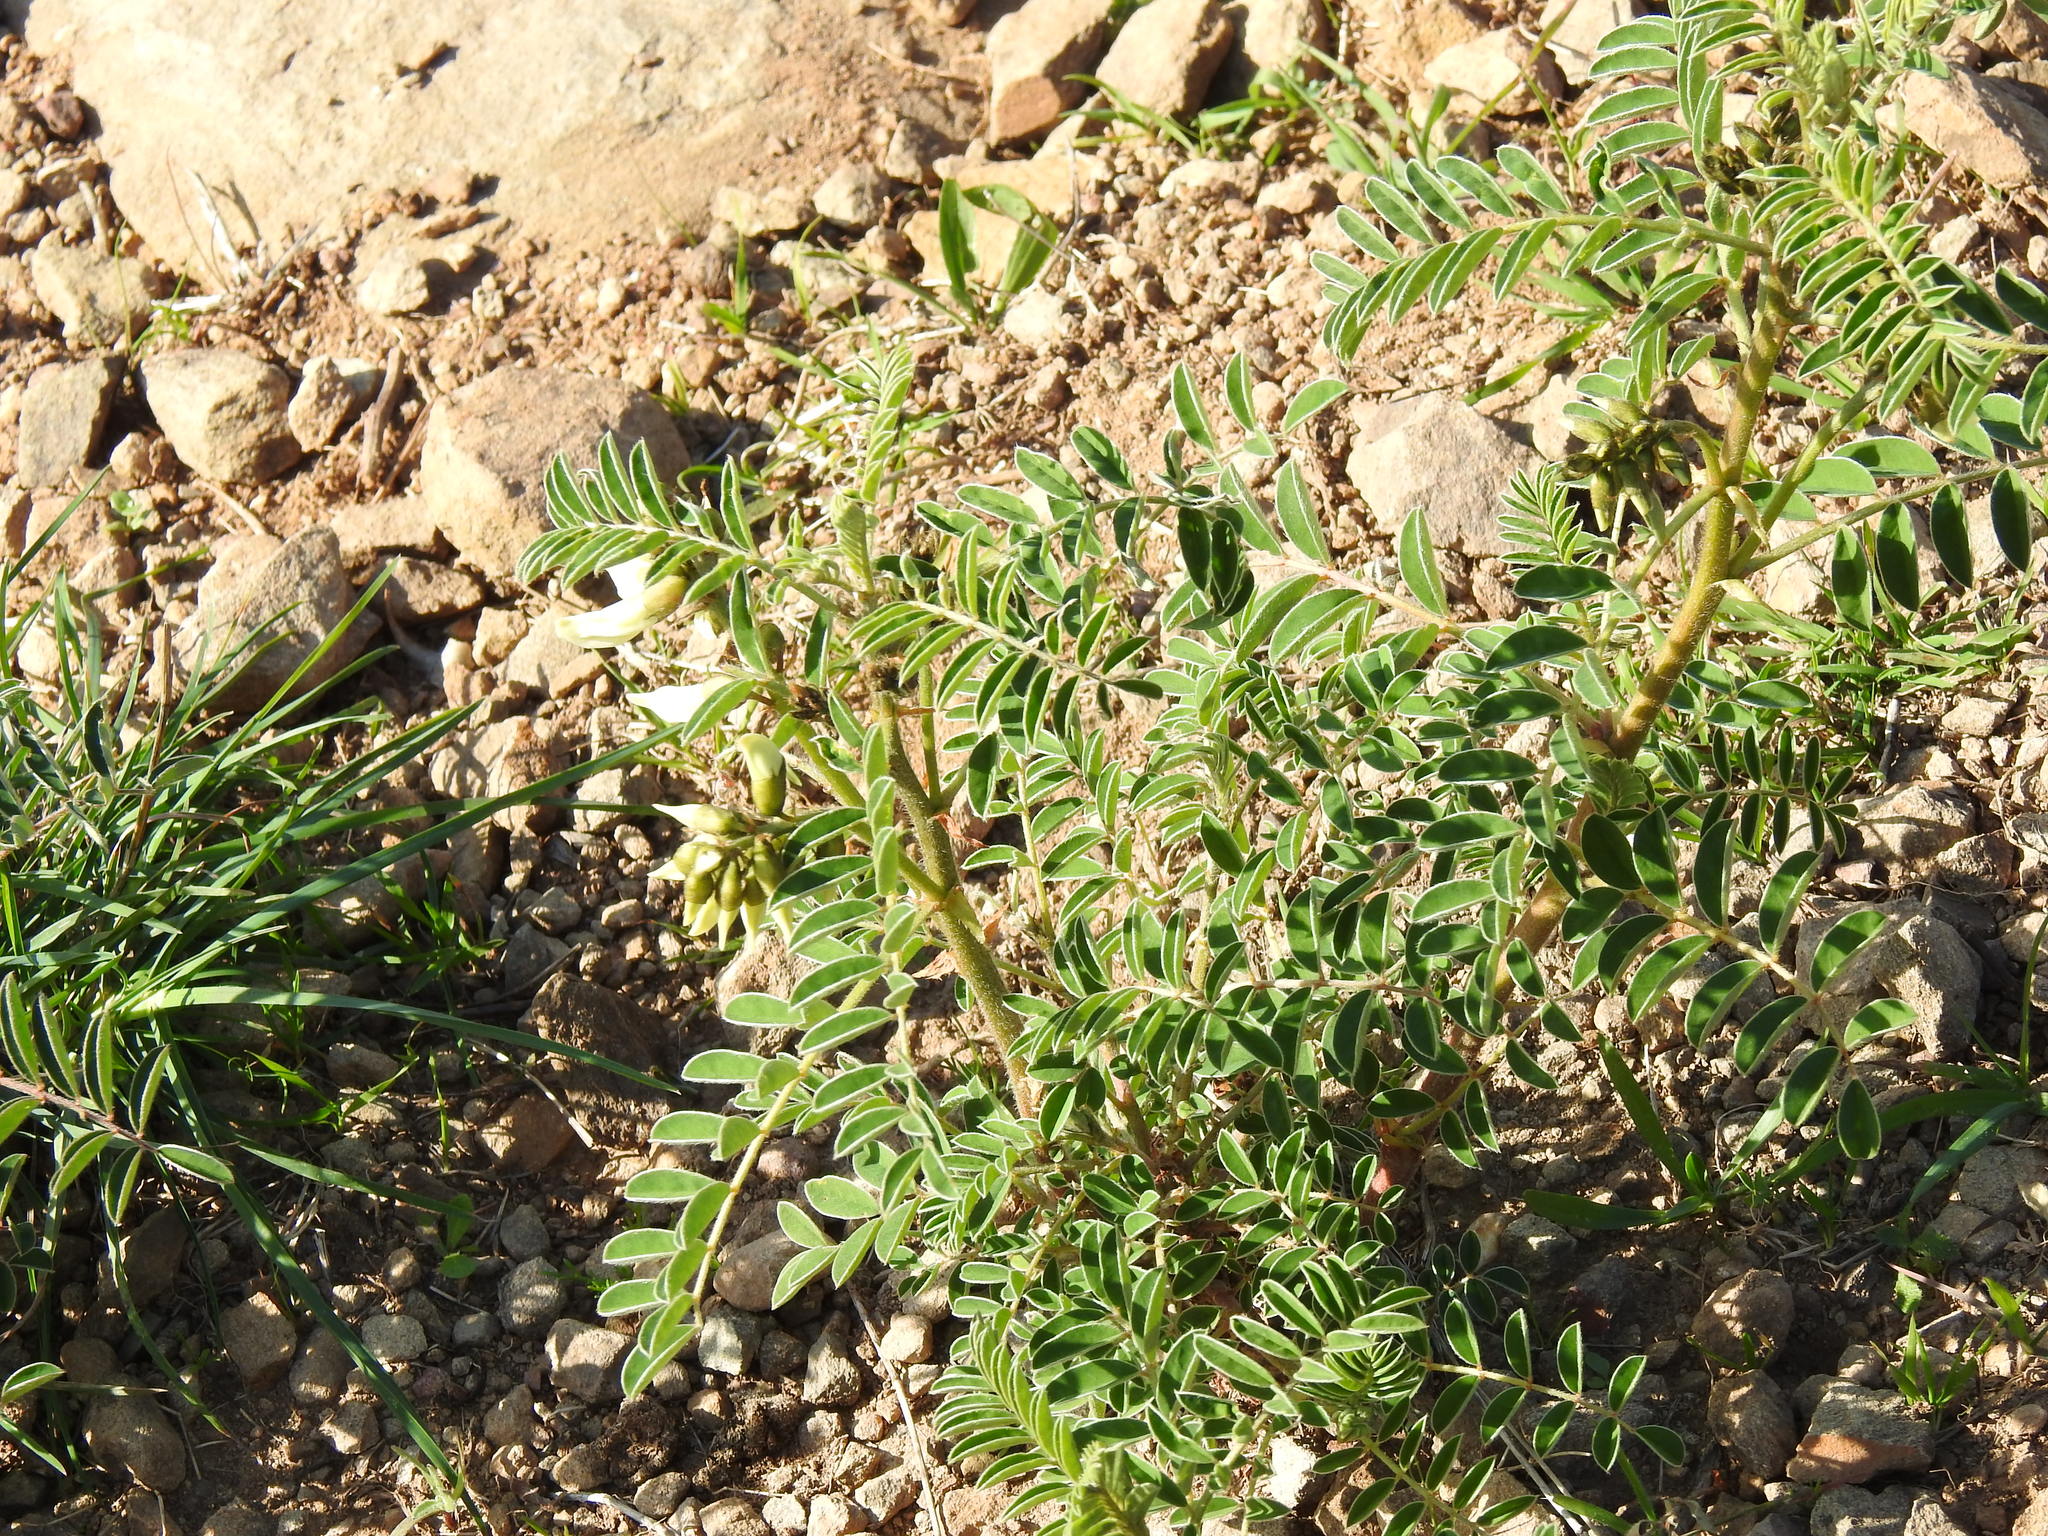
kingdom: Plantae
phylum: Tracheophyta
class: Magnoliopsida
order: Fabales
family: Fabaceae
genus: Erophaca
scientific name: Erophaca baetica
